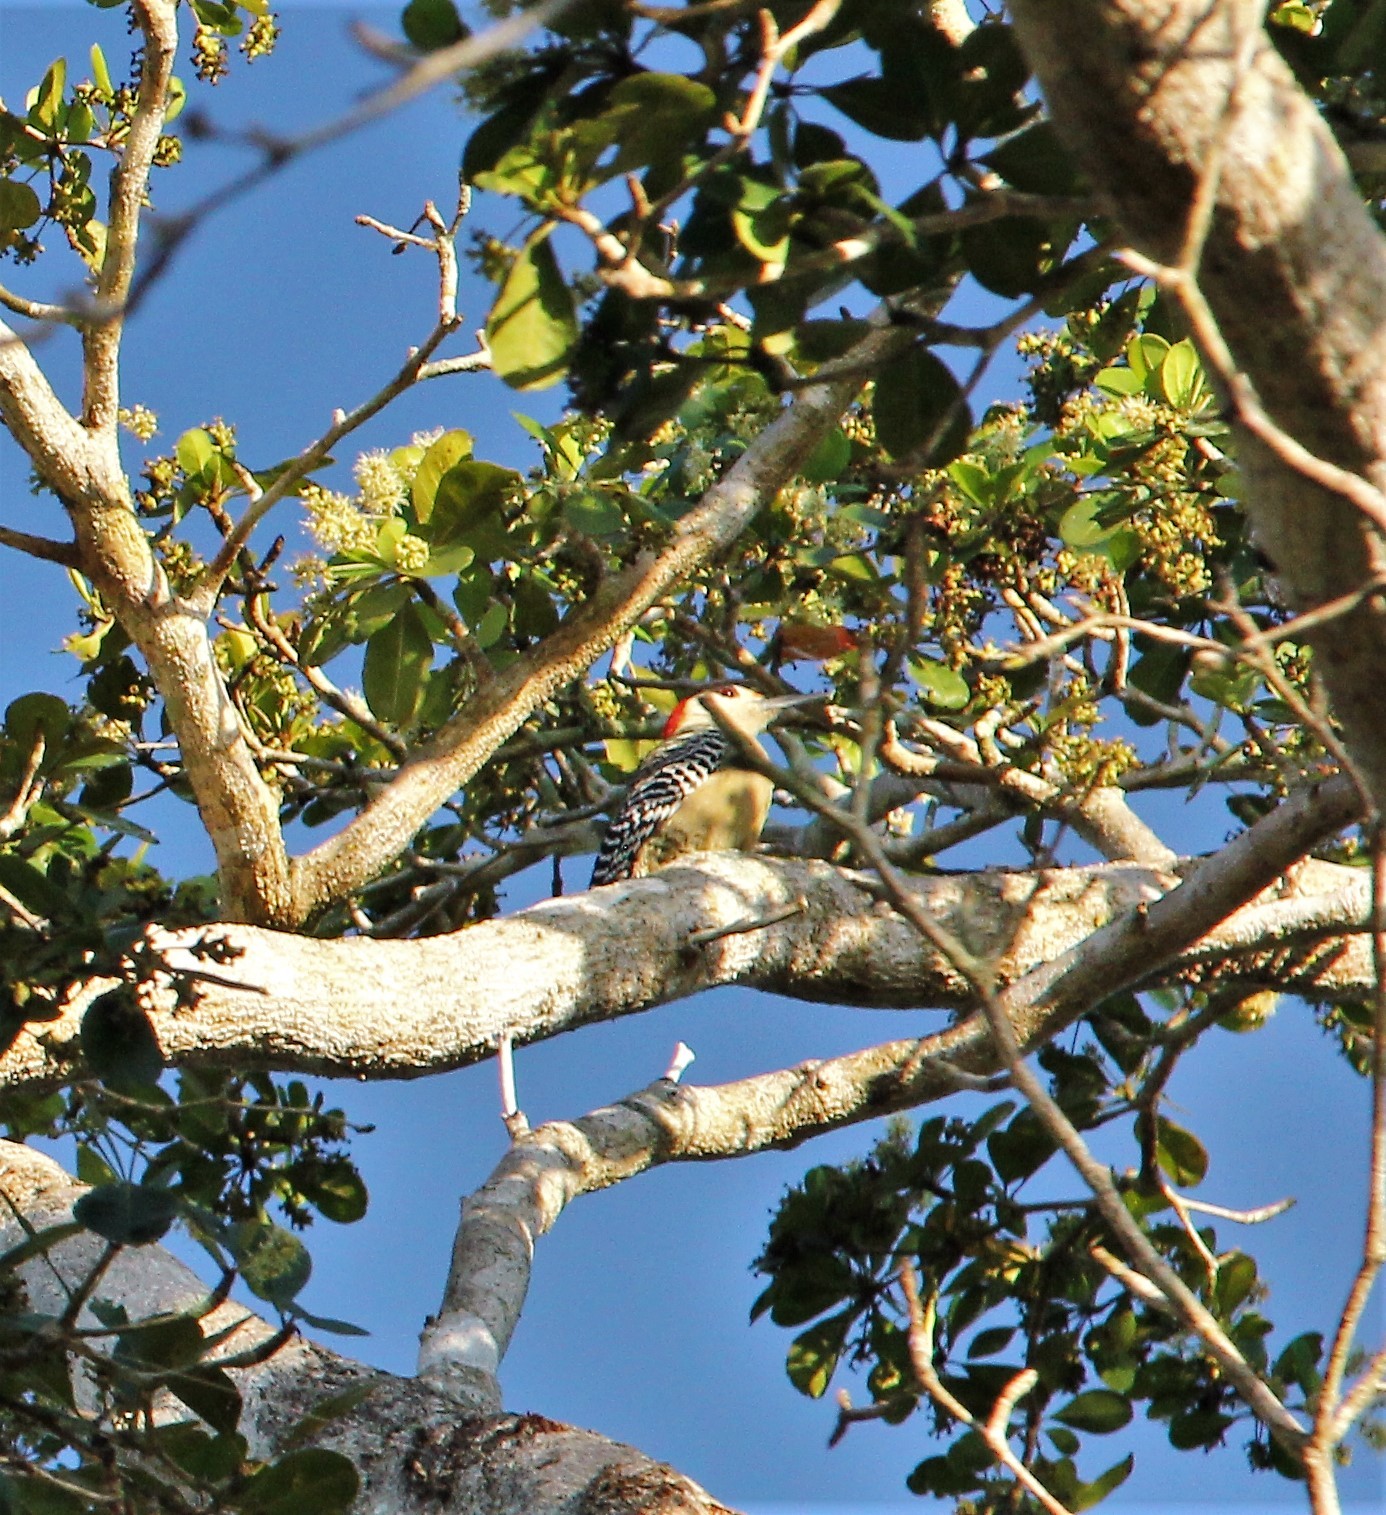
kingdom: Animalia
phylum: Chordata
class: Aves
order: Piciformes
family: Picidae
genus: Melanerpes
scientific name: Melanerpes superciliaris
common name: West indian woodpecker
